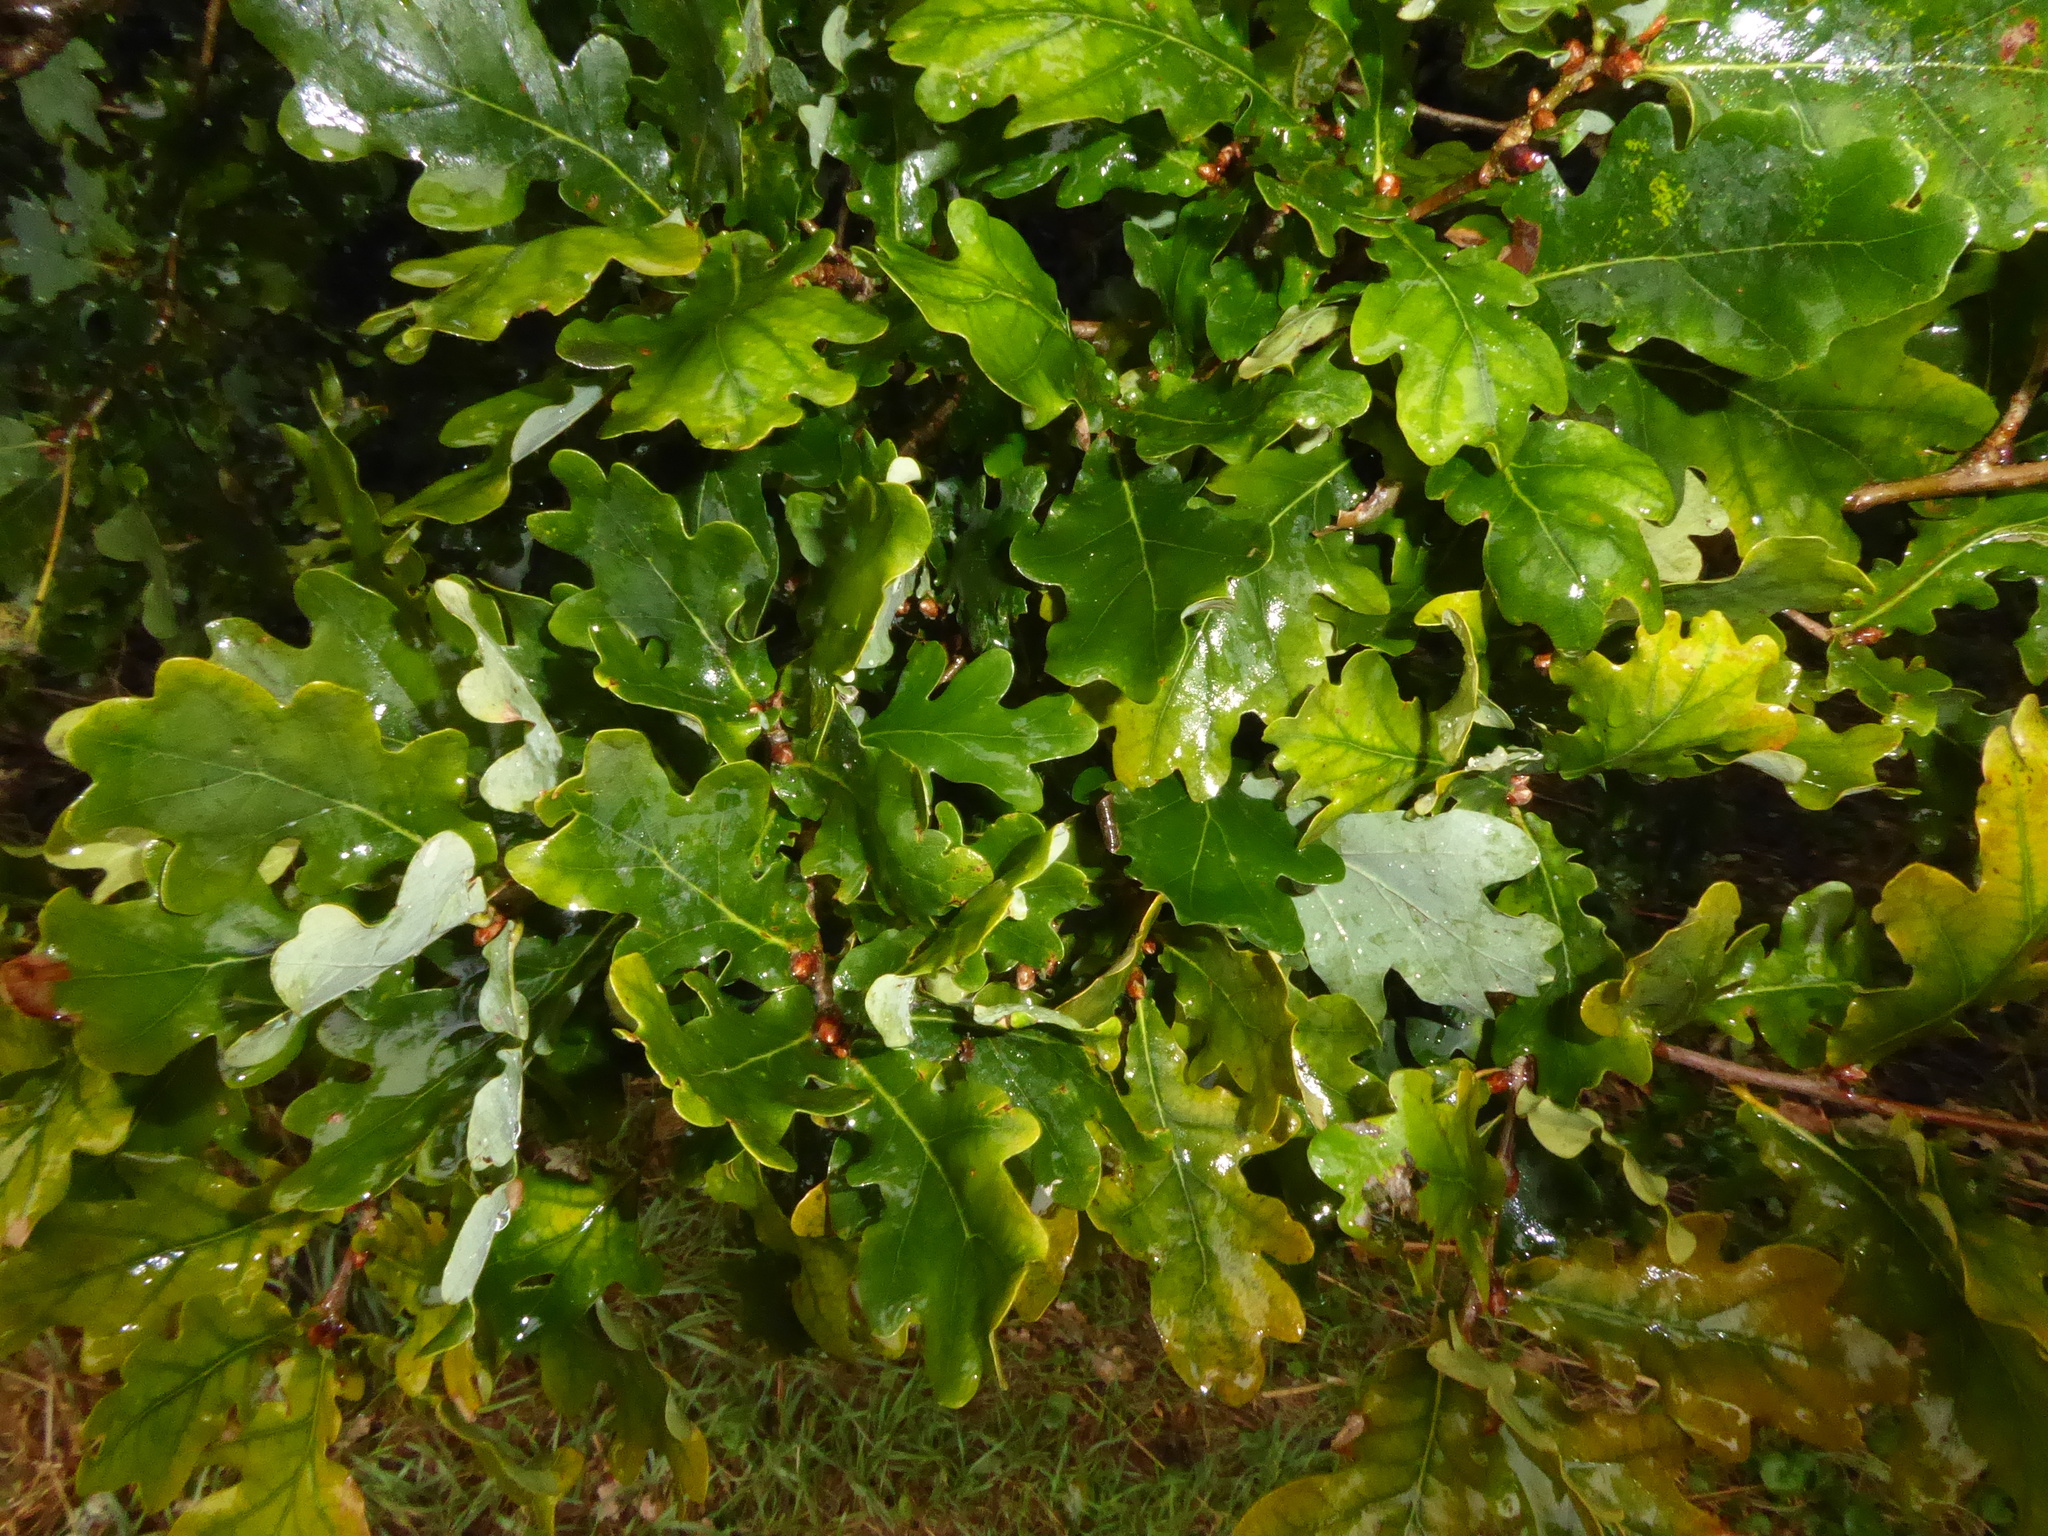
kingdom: Plantae
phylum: Tracheophyta
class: Magnoliopsida
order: Fagales
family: Fagaceae
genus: Quercus
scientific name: Quercus robur
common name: Pedunculate oak
